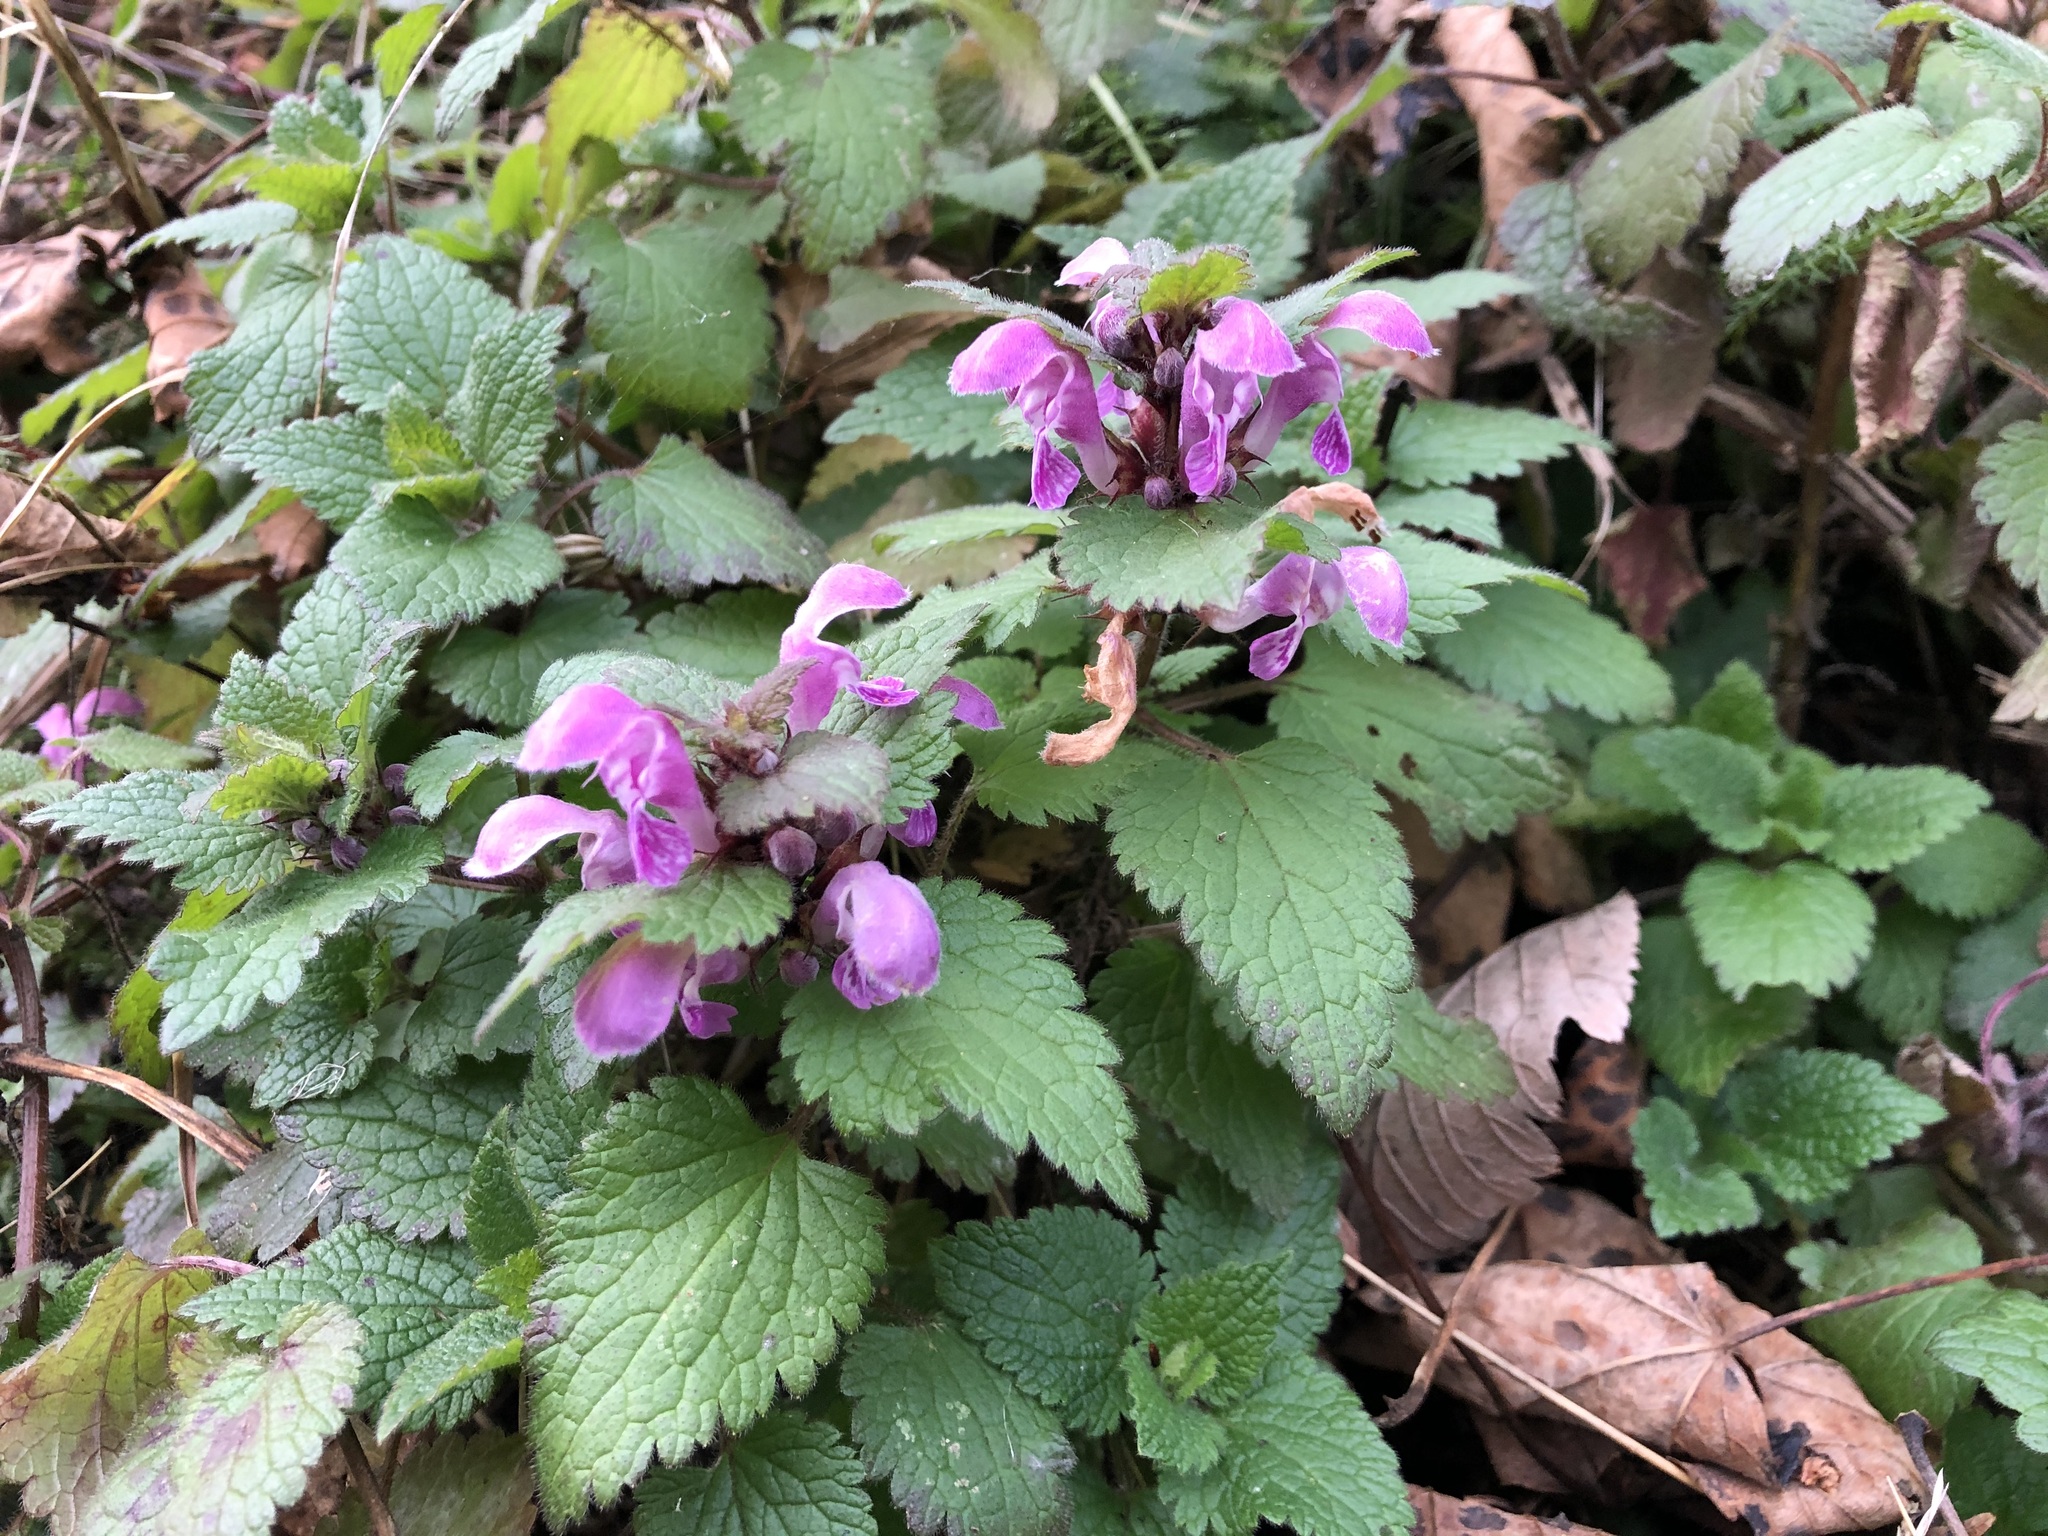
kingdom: Plantae
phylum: Tracheophyta
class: Magnoliopsida
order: Lamiales
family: Lamiaceae
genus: Lamium
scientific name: Lamium maculatum
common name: Spotted dead-nettle
